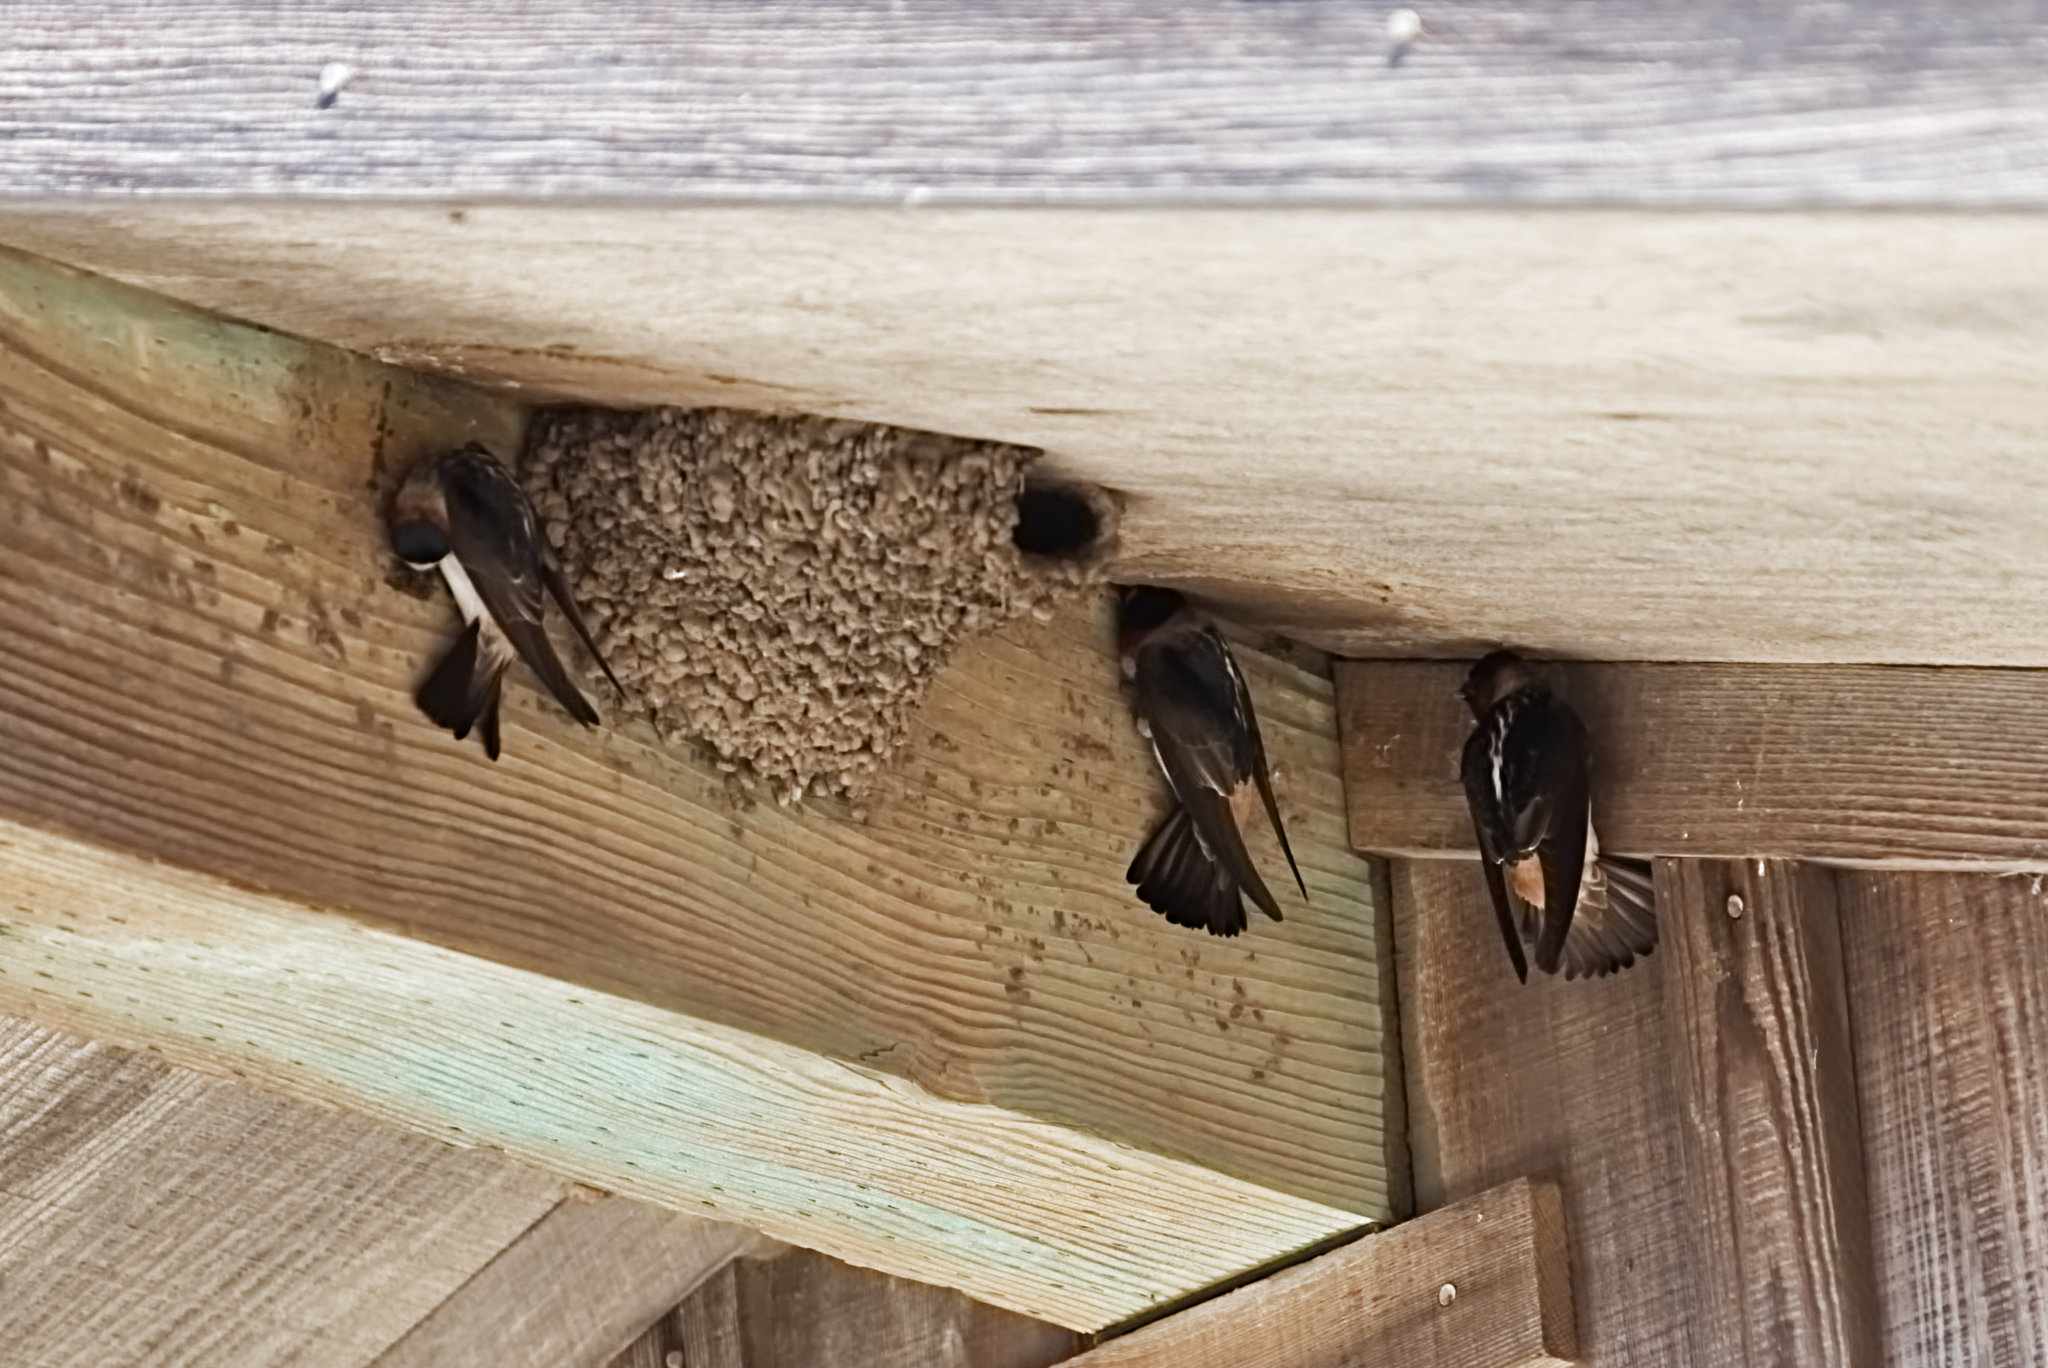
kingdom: Animalia
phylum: Chordata
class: Aves
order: Passeriformes
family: Hirundinidae
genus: Petrochelidon
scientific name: Petrochelidon pyrrhonota
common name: American cliff swallow
